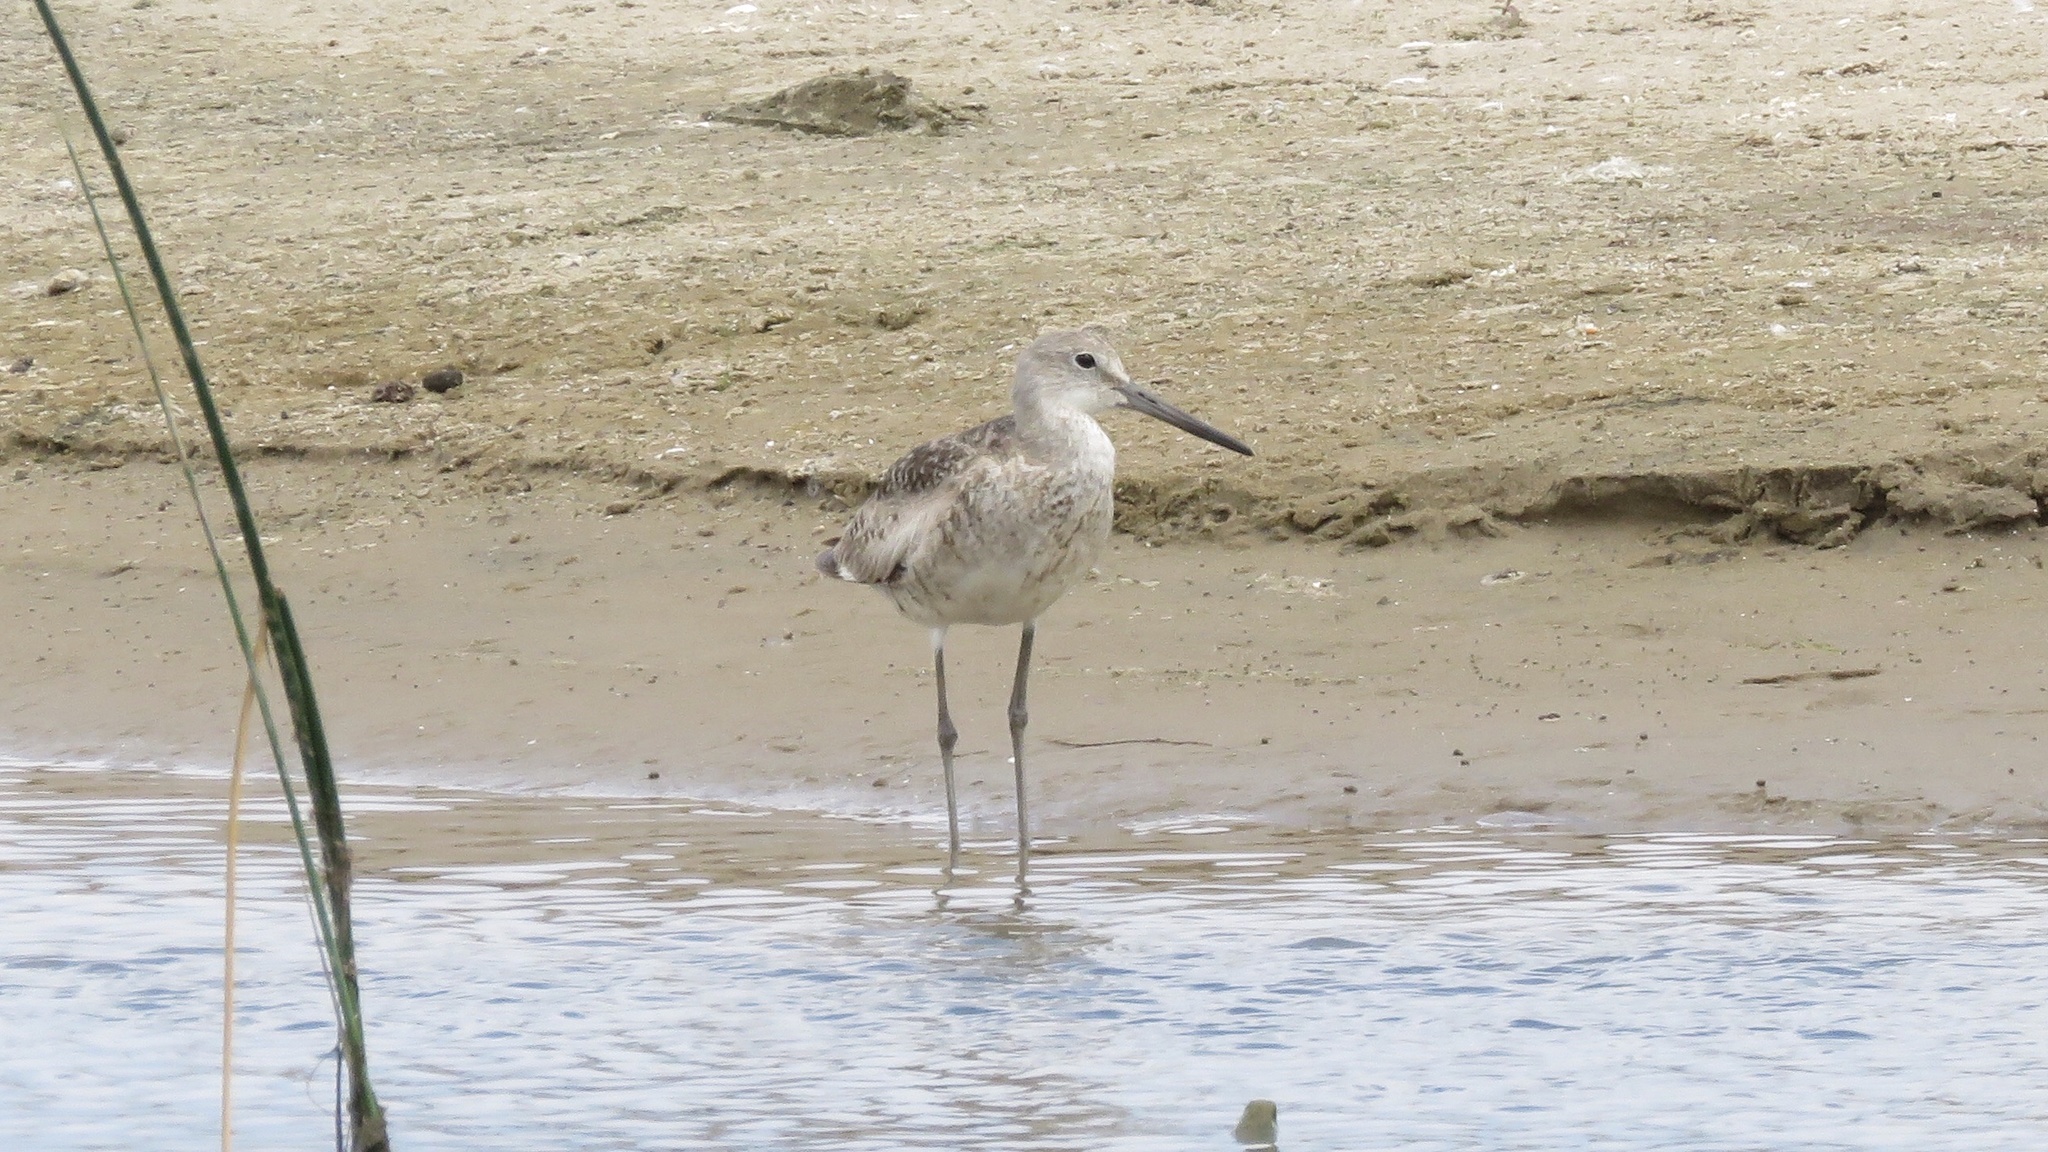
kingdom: Animalia
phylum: Chordata
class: Aves
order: Charadriiformes
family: Scolopacidae
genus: Tringa
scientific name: Tringa semipalmata
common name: Willet
